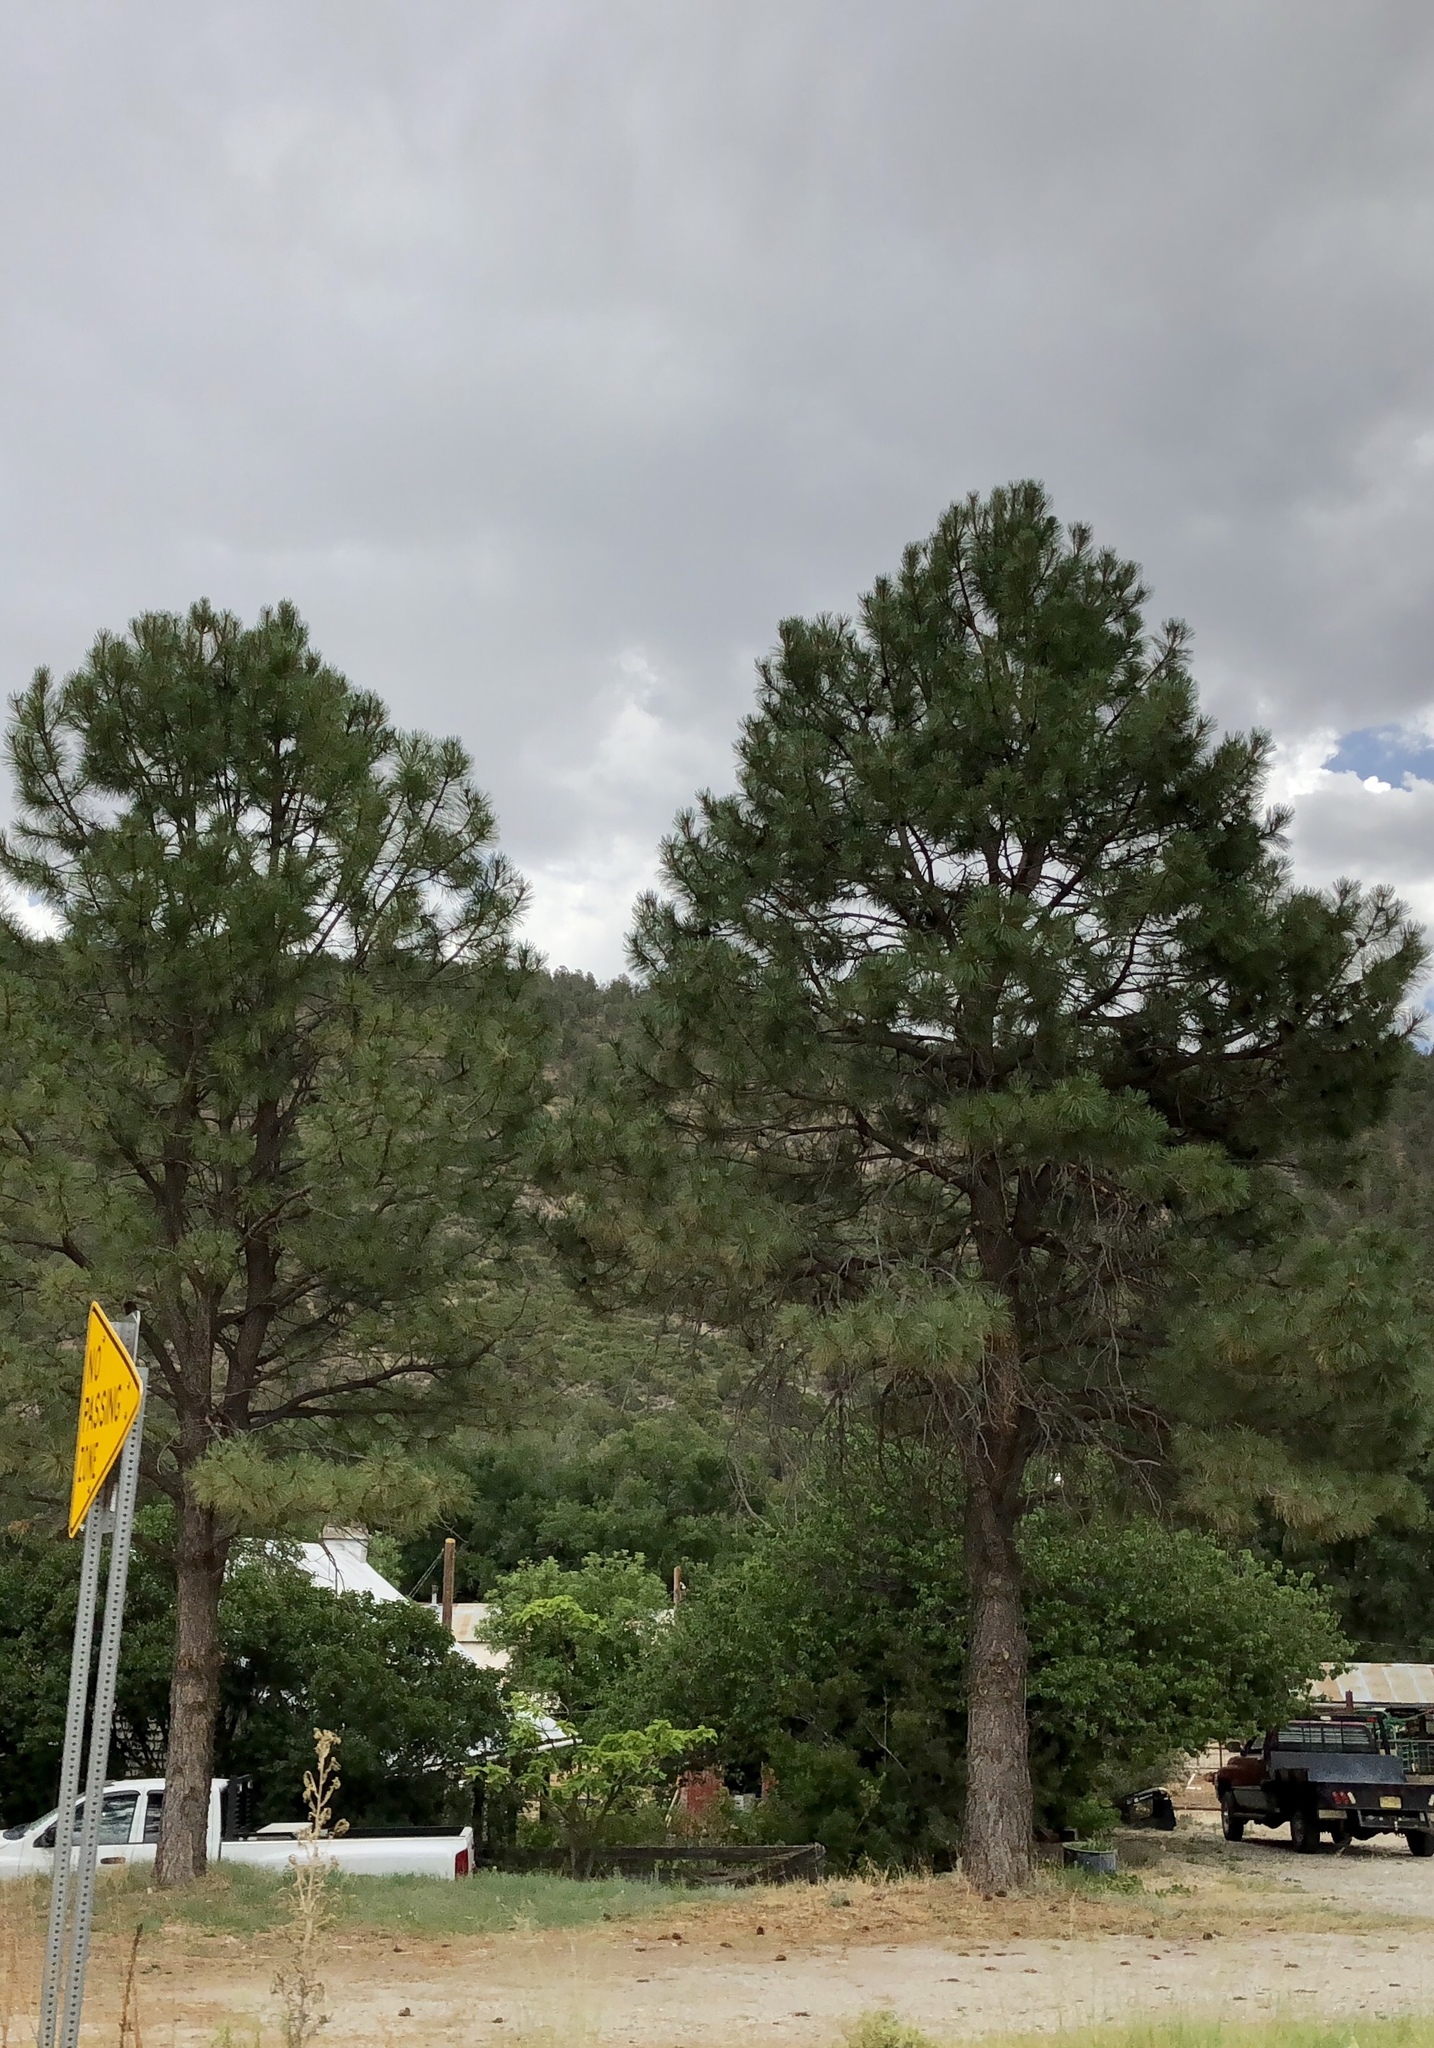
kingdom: Plantae
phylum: Tracheophyta
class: Pinopsida
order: Pinales
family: Pinaceae
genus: Pinus
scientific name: Pinus ponderosa
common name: Western yellow-pine
